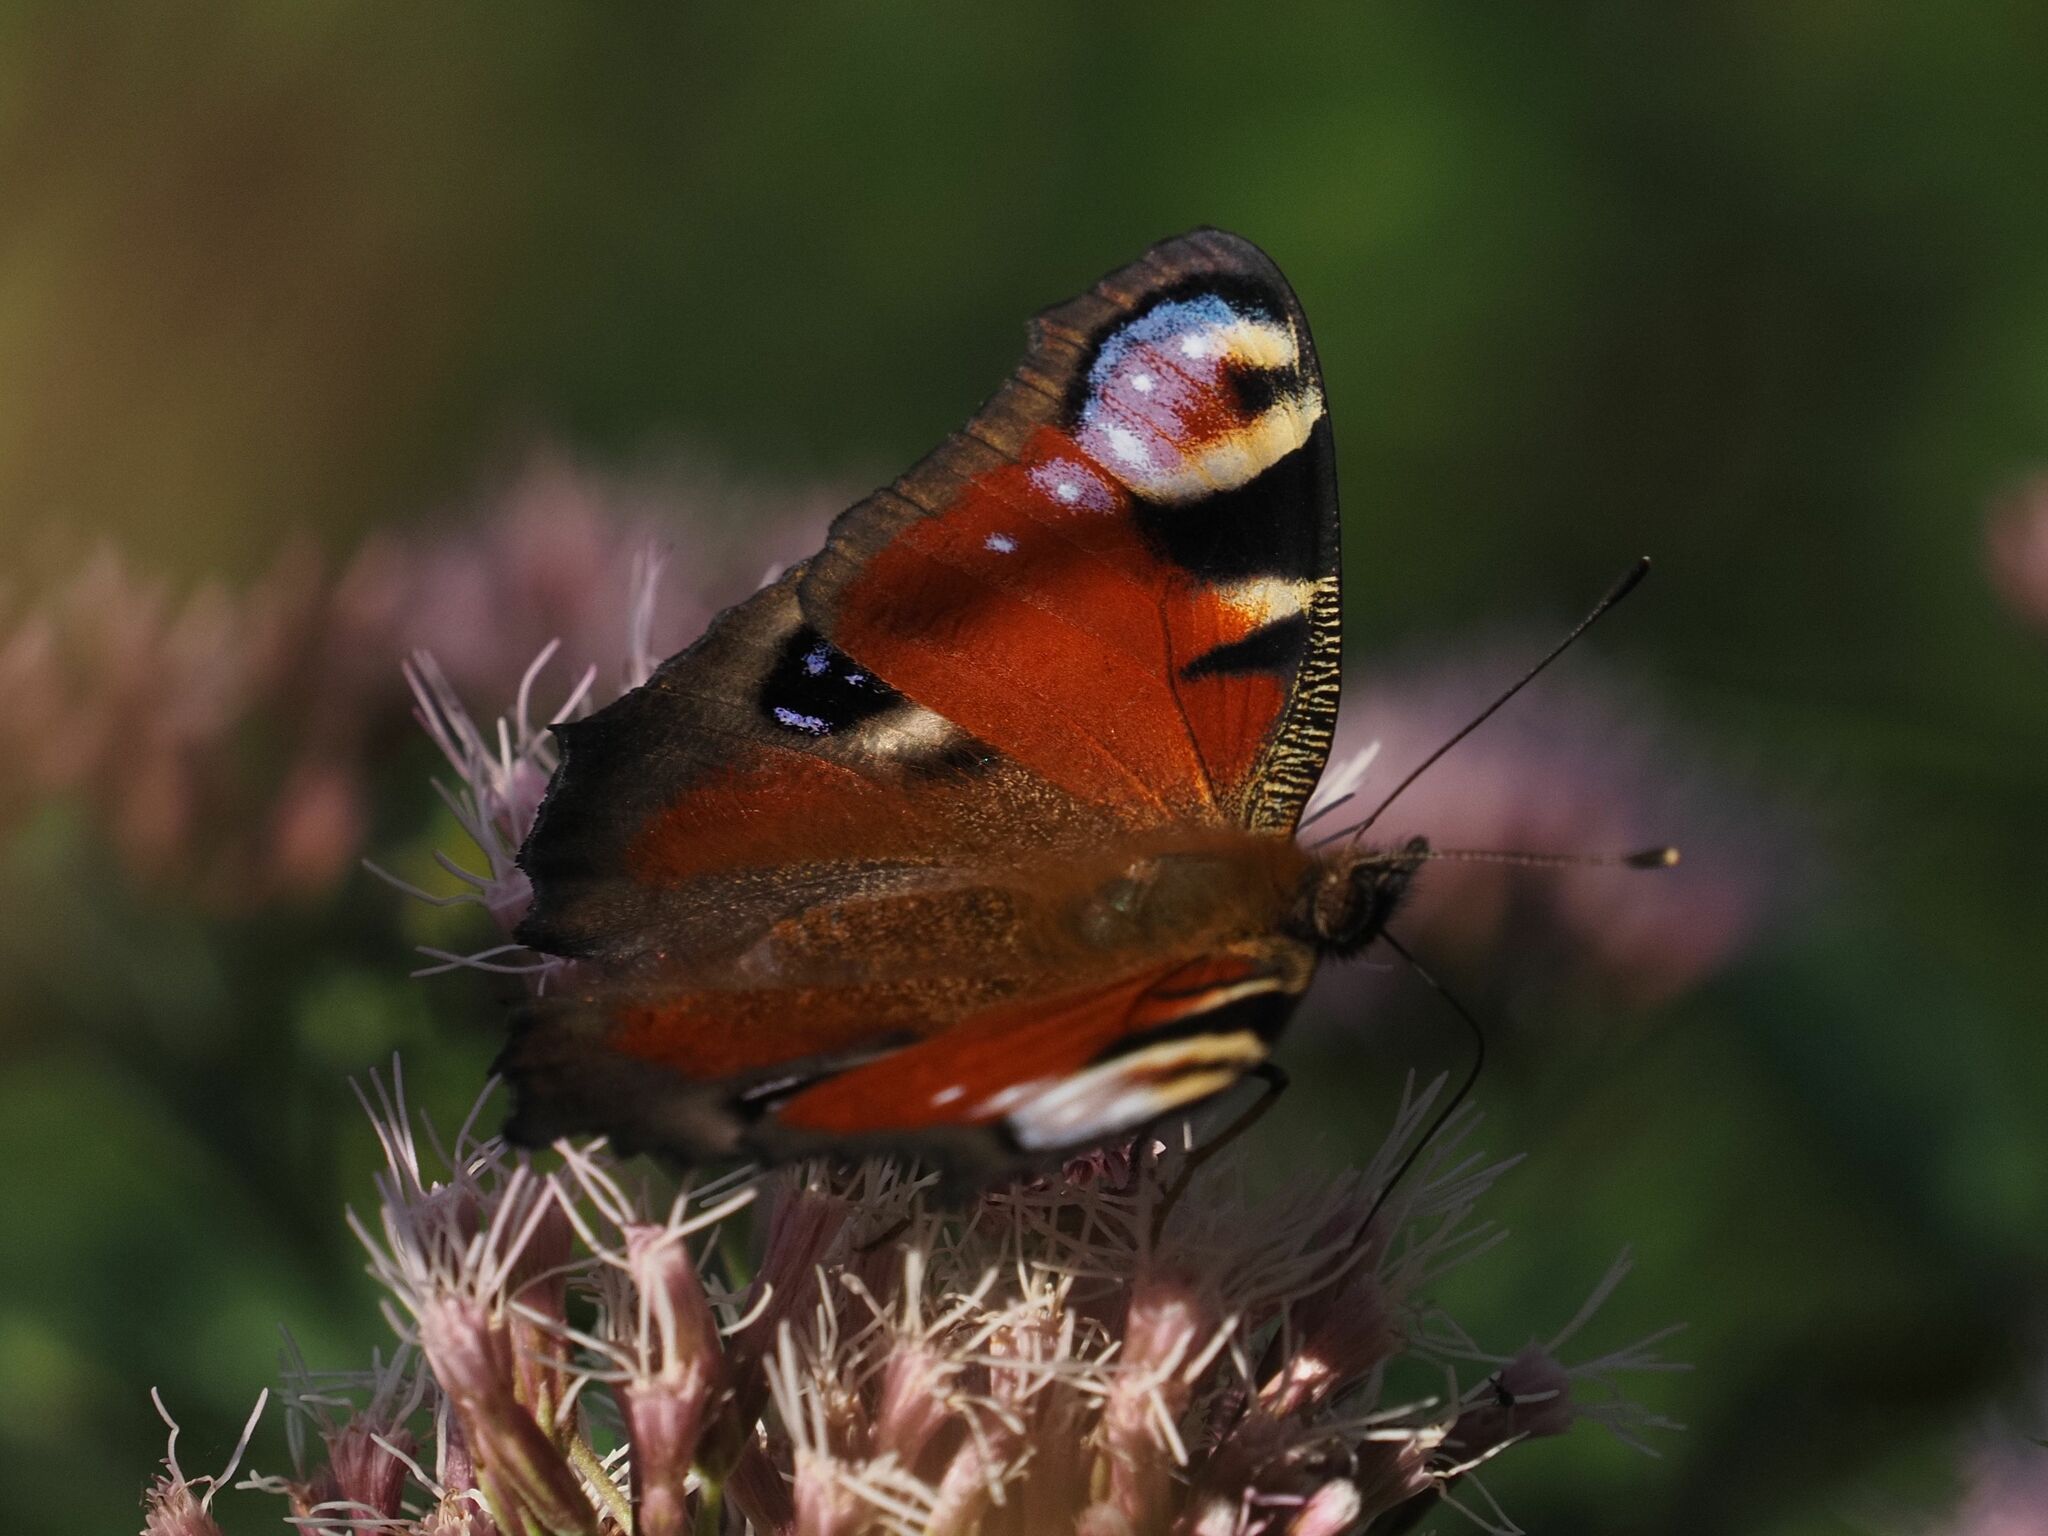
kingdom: Animalia
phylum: Arthropoda
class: Insecta
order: Lepidoptera
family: Nymphalidae
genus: Aglais
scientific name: Aglais io
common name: Peacock
